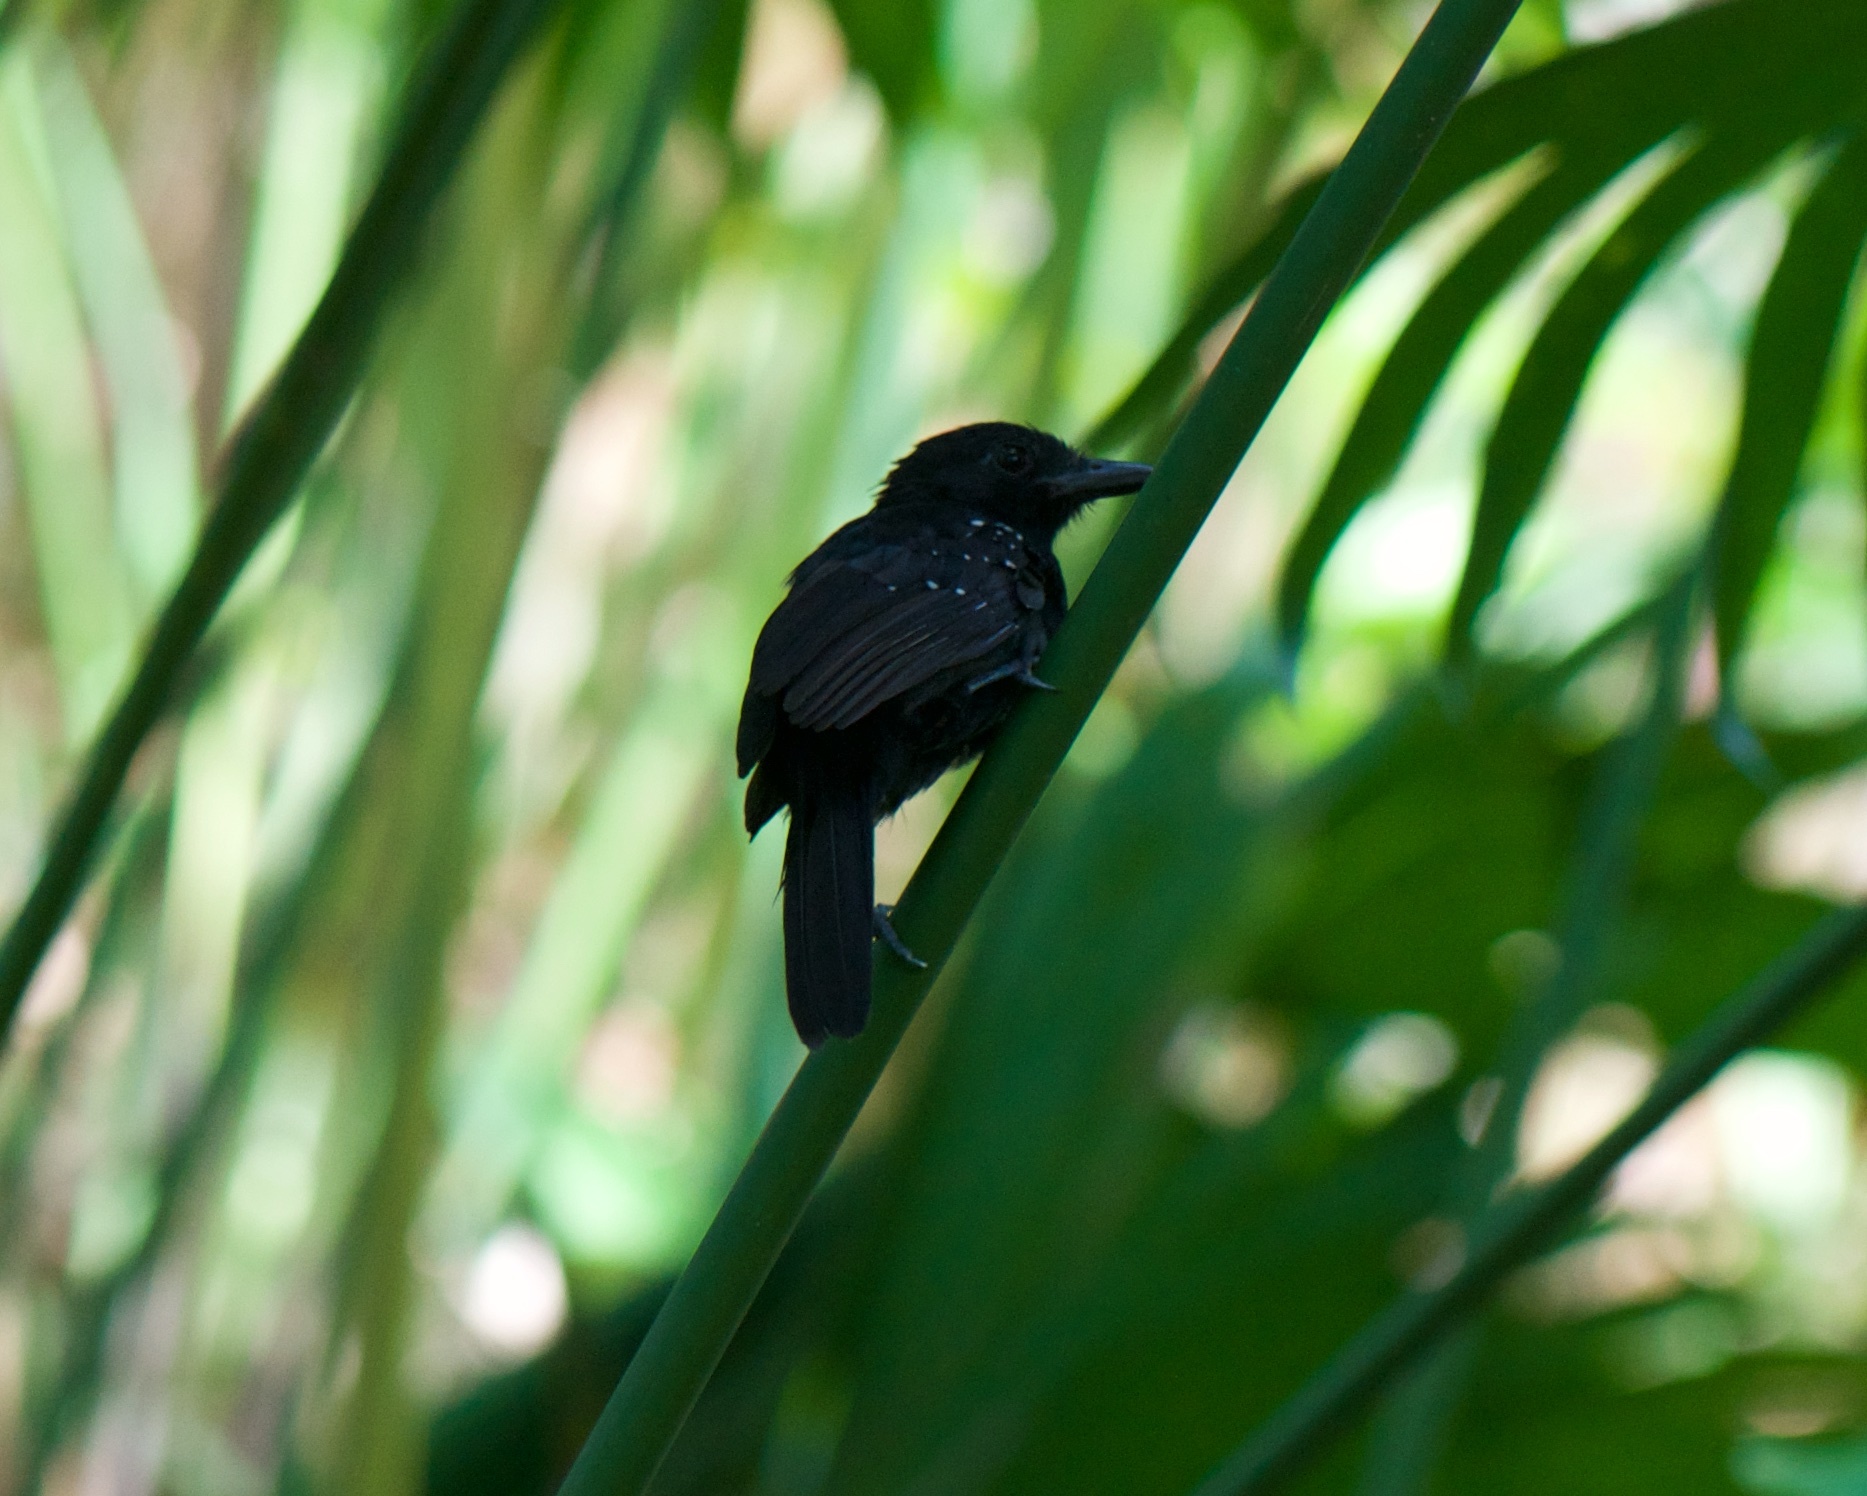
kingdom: Animalia
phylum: Chordata
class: Aves
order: Passeriformes
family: Thamnophilidae
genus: Thamnophilus
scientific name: Thamnophilus bridgesi
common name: Black-hooded antshrike
